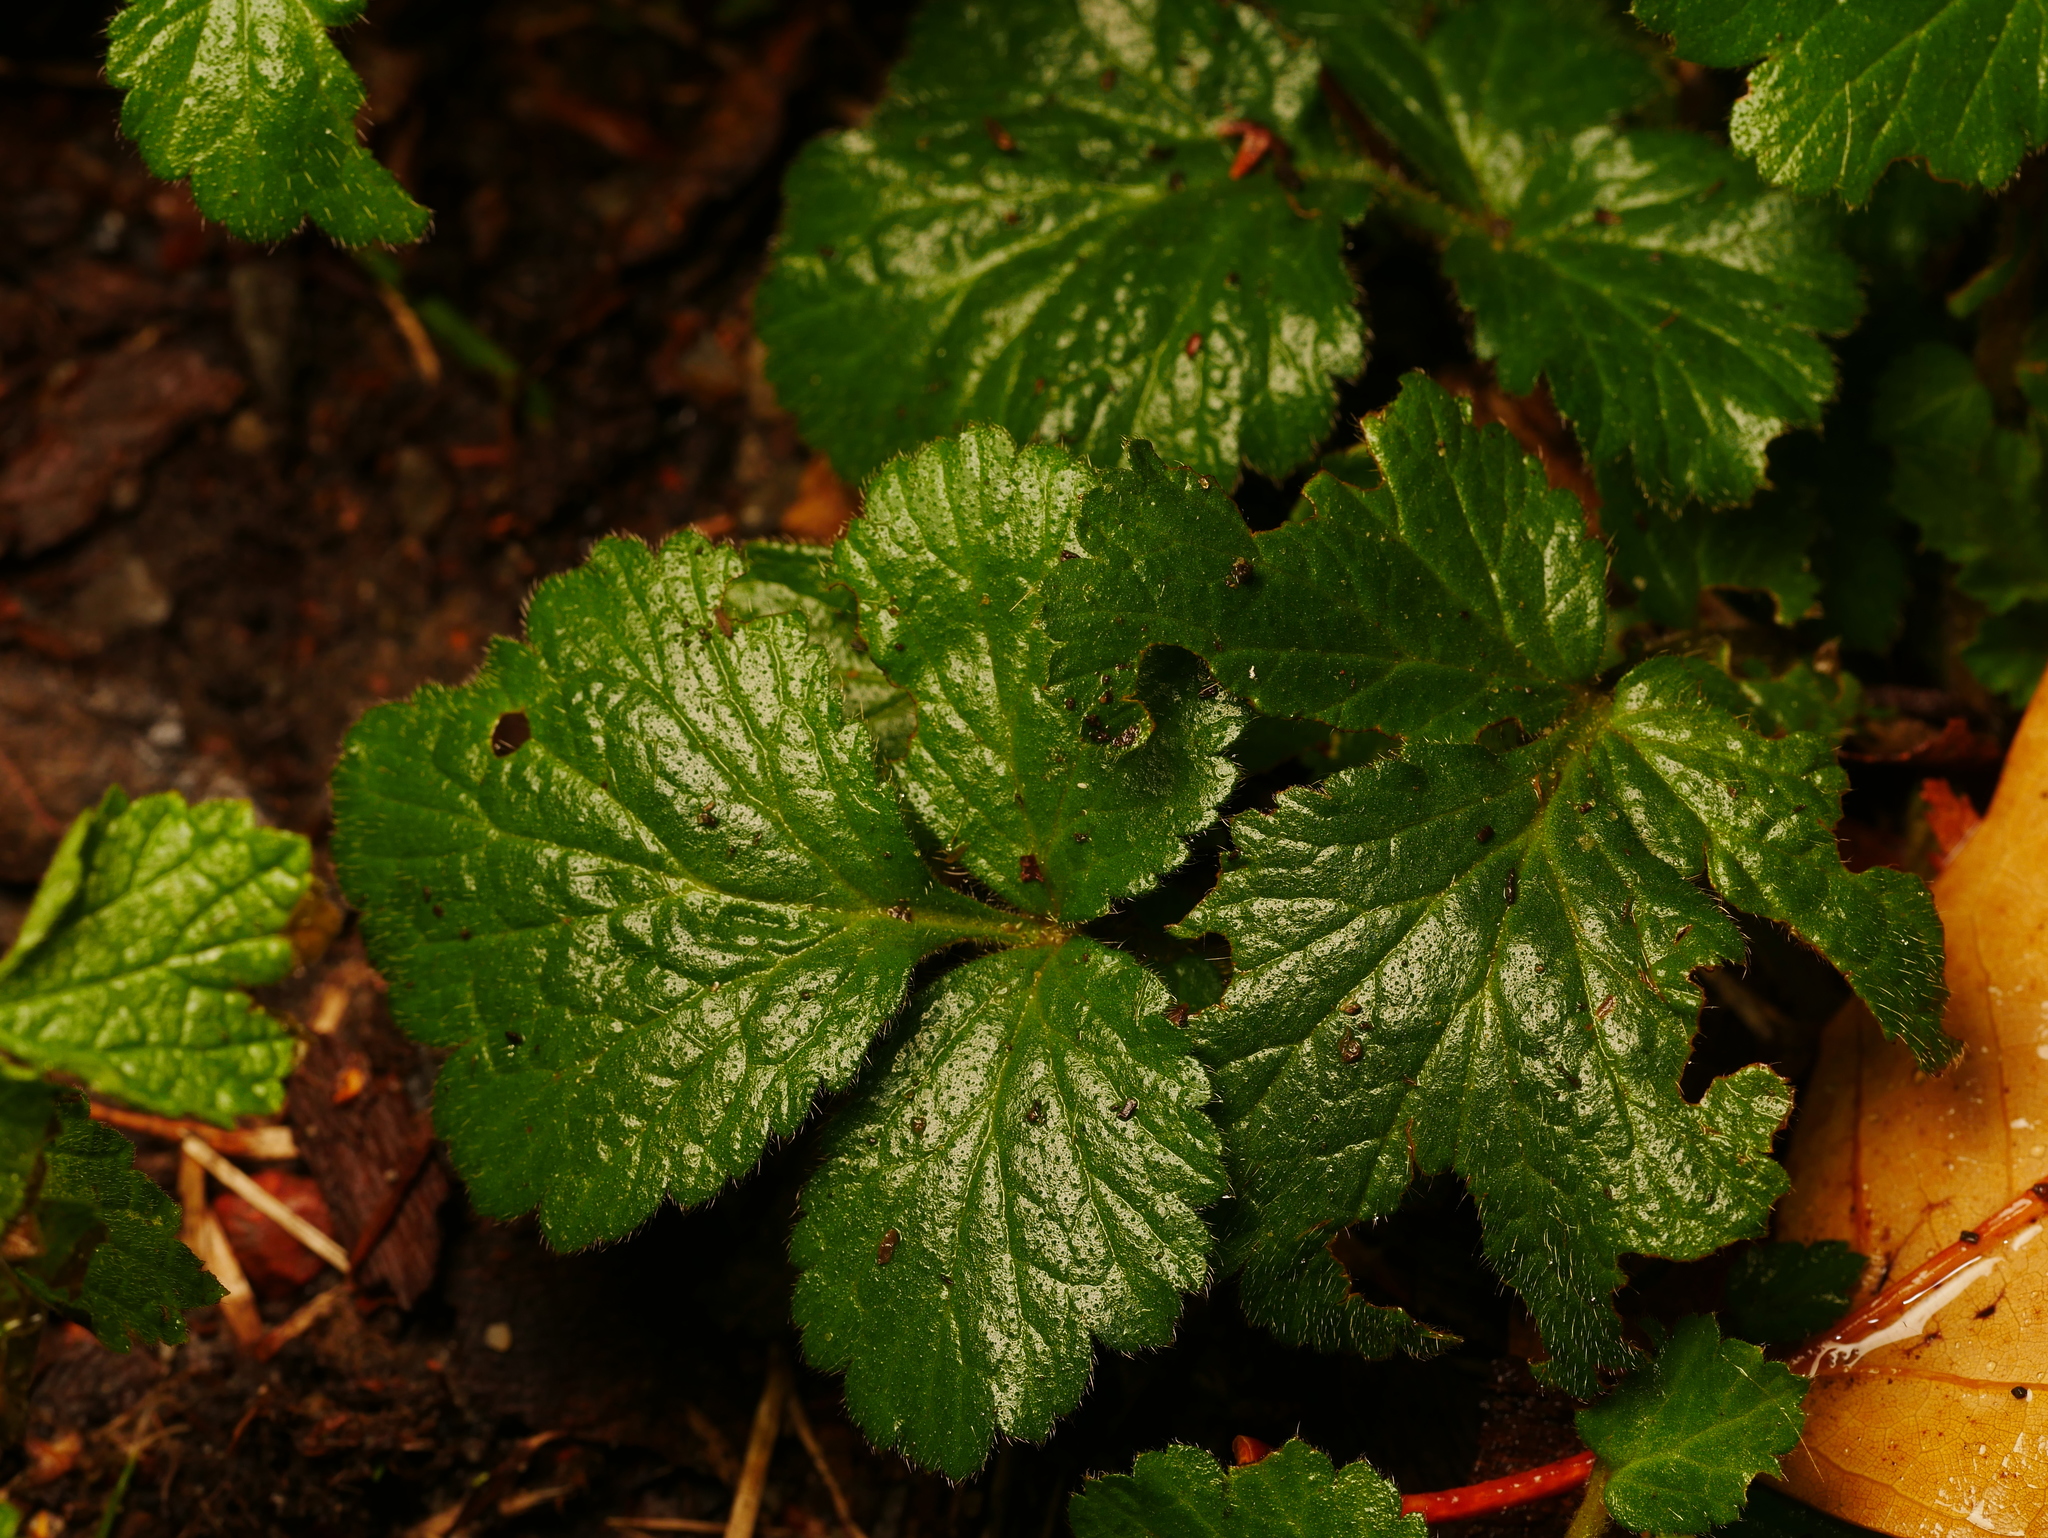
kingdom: Plantae
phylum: Tracheophyta
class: Magnoliopsida
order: Rosales
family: Rosaceae
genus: Geum
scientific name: Geum urbanum
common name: Wood avens
